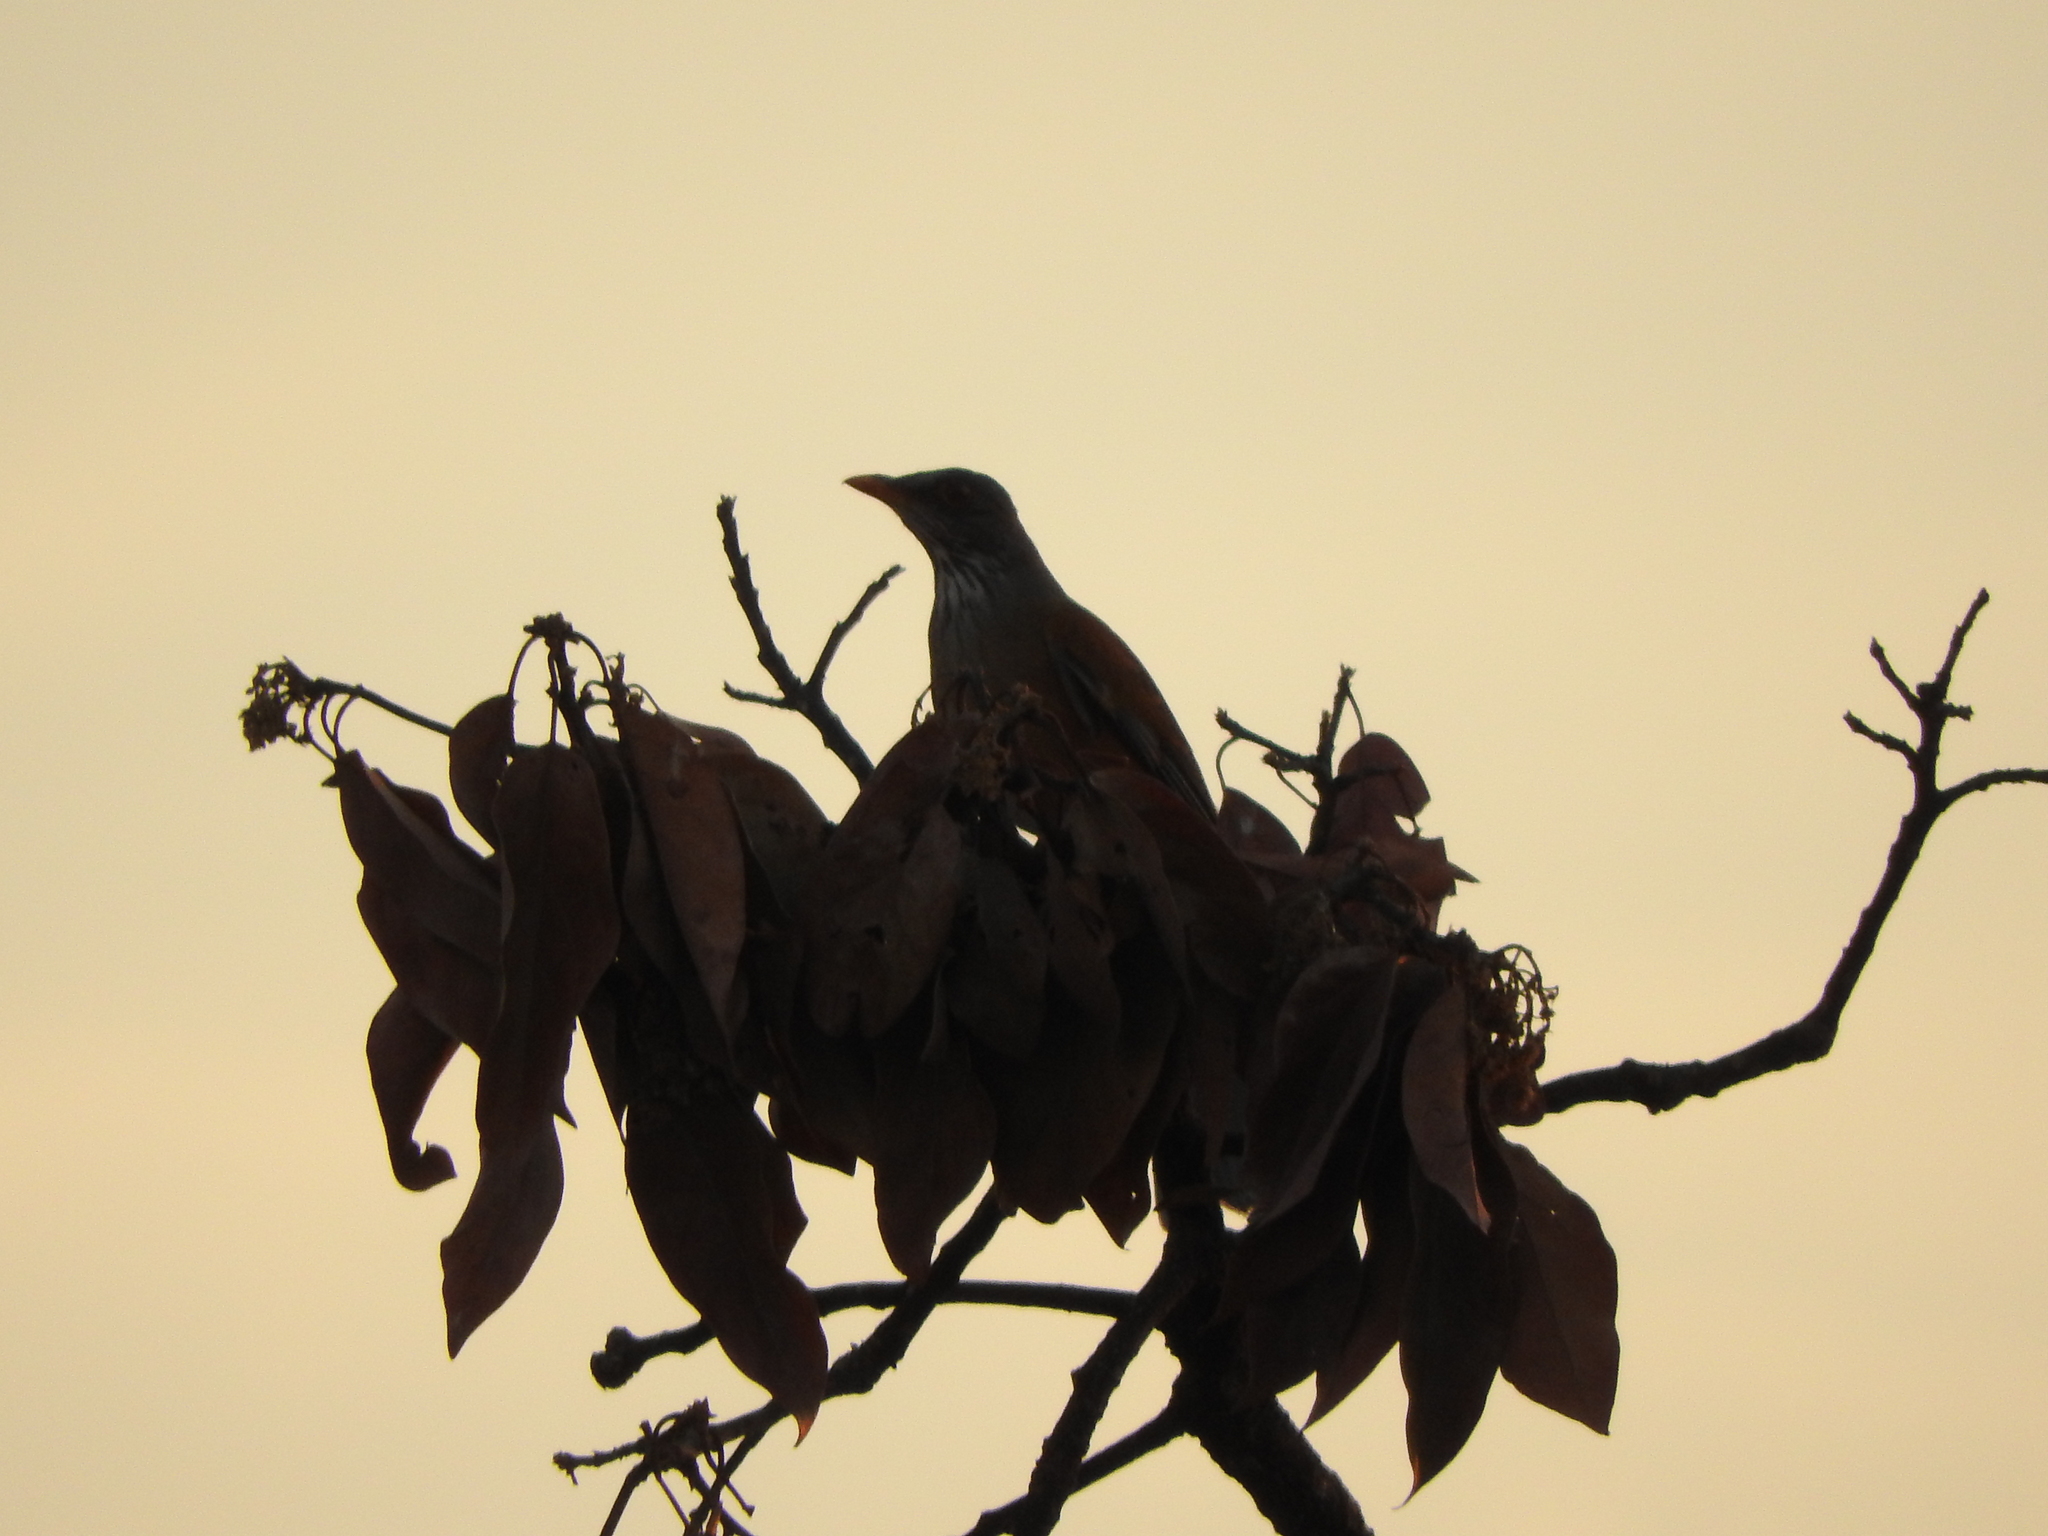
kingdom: Animalia
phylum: Chordata
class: Aves
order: Passeriformes
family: Turdidae
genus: Turdus
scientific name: Turdus rufopalliatus
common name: Rufous-backed robin
